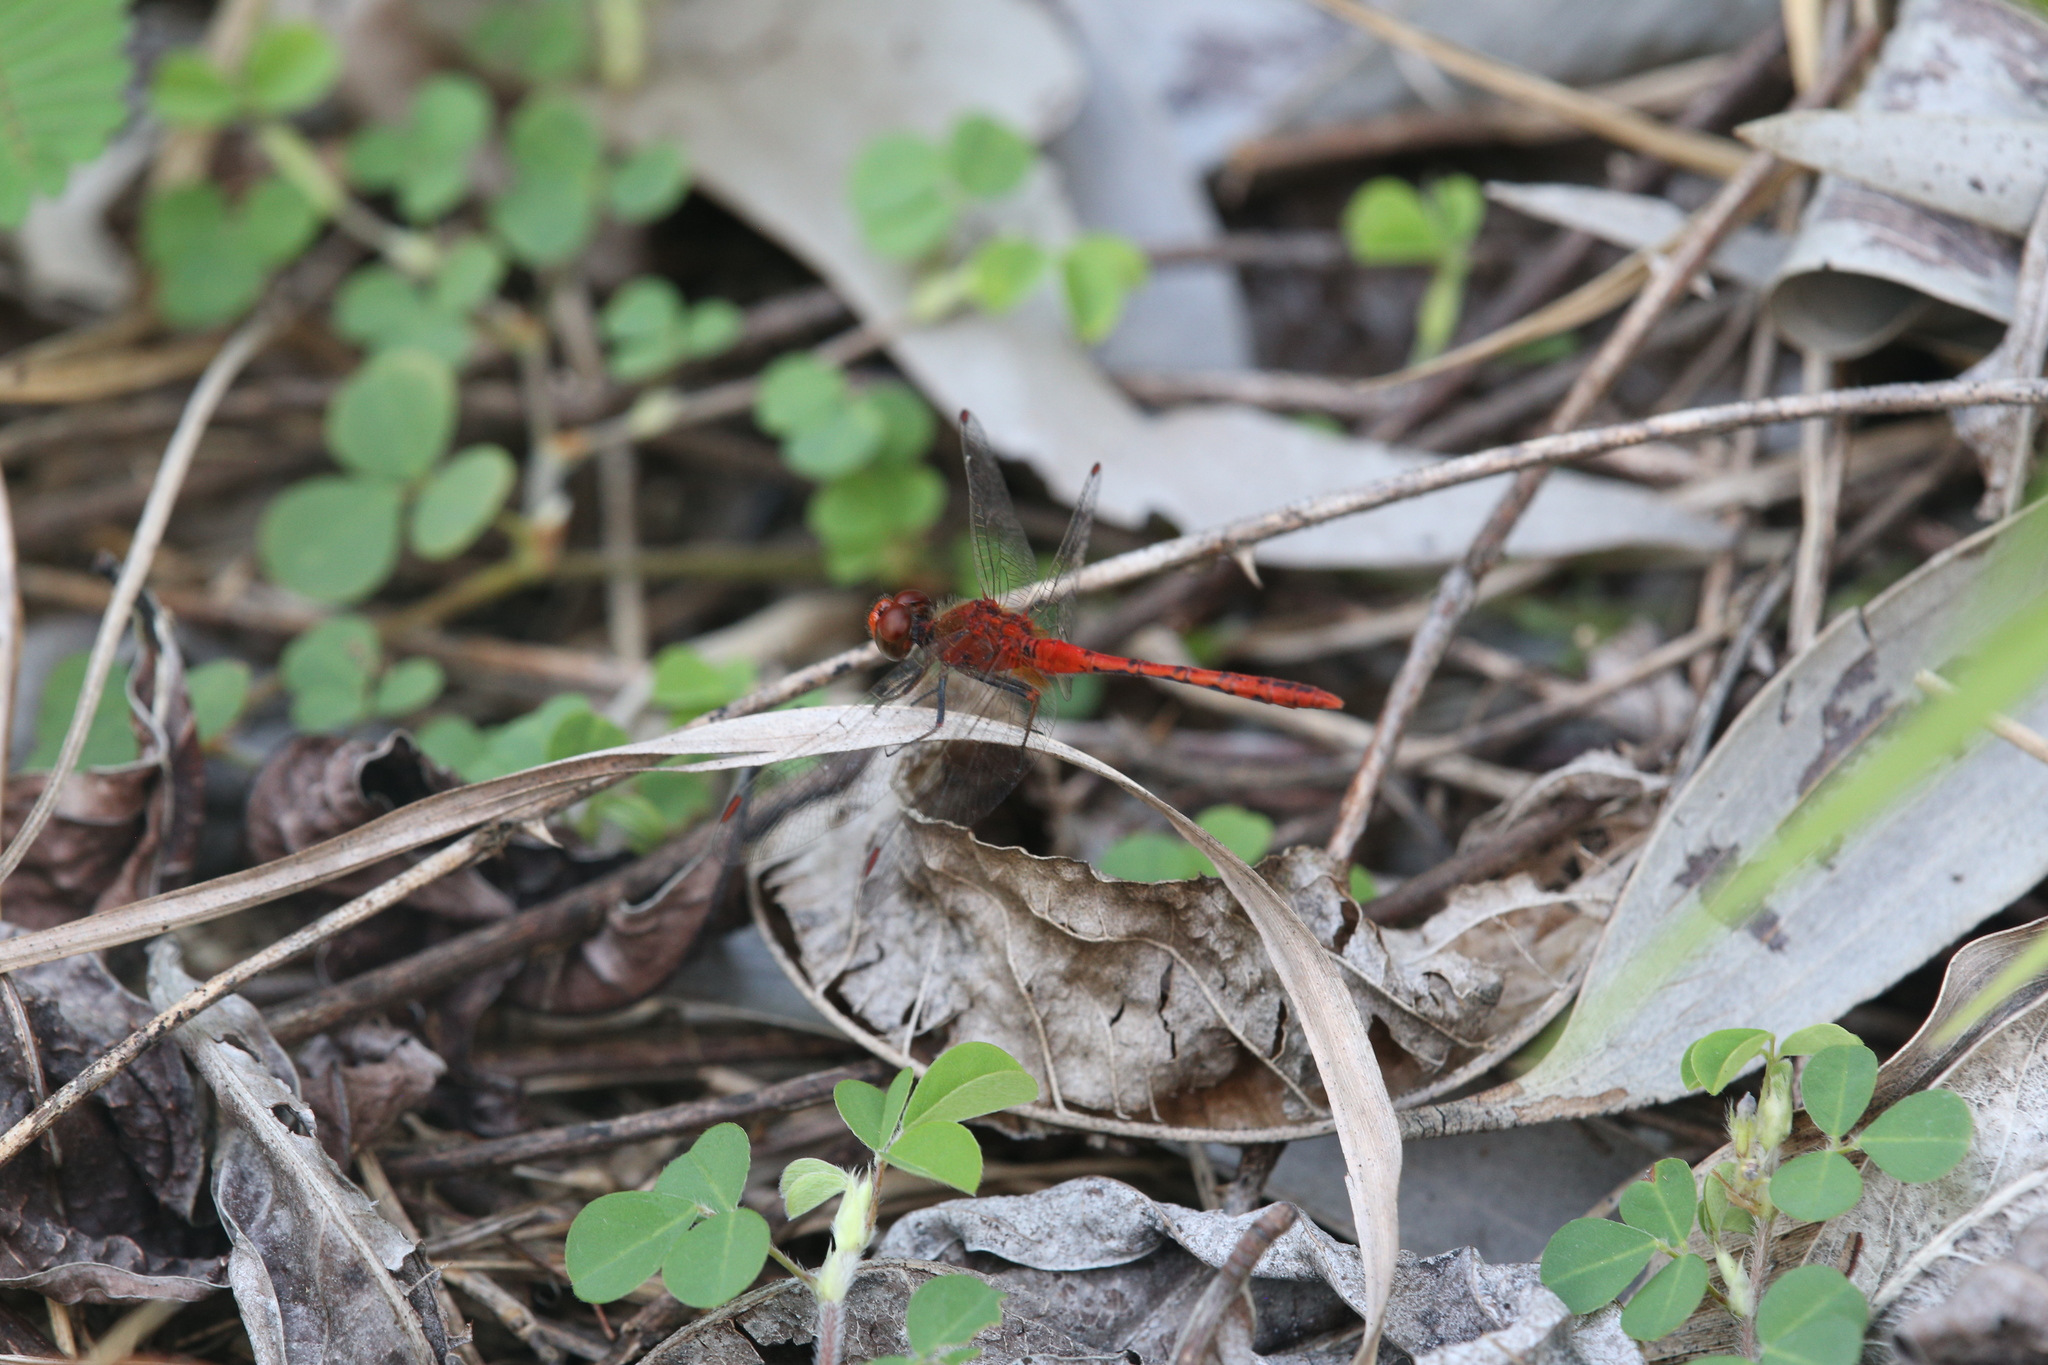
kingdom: Animalia
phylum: Arthropoda
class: Insecta
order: Odonata
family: Libellulidae
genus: Diplacodes
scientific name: Diplacodes bipunctata
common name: Red percher dragonfly
